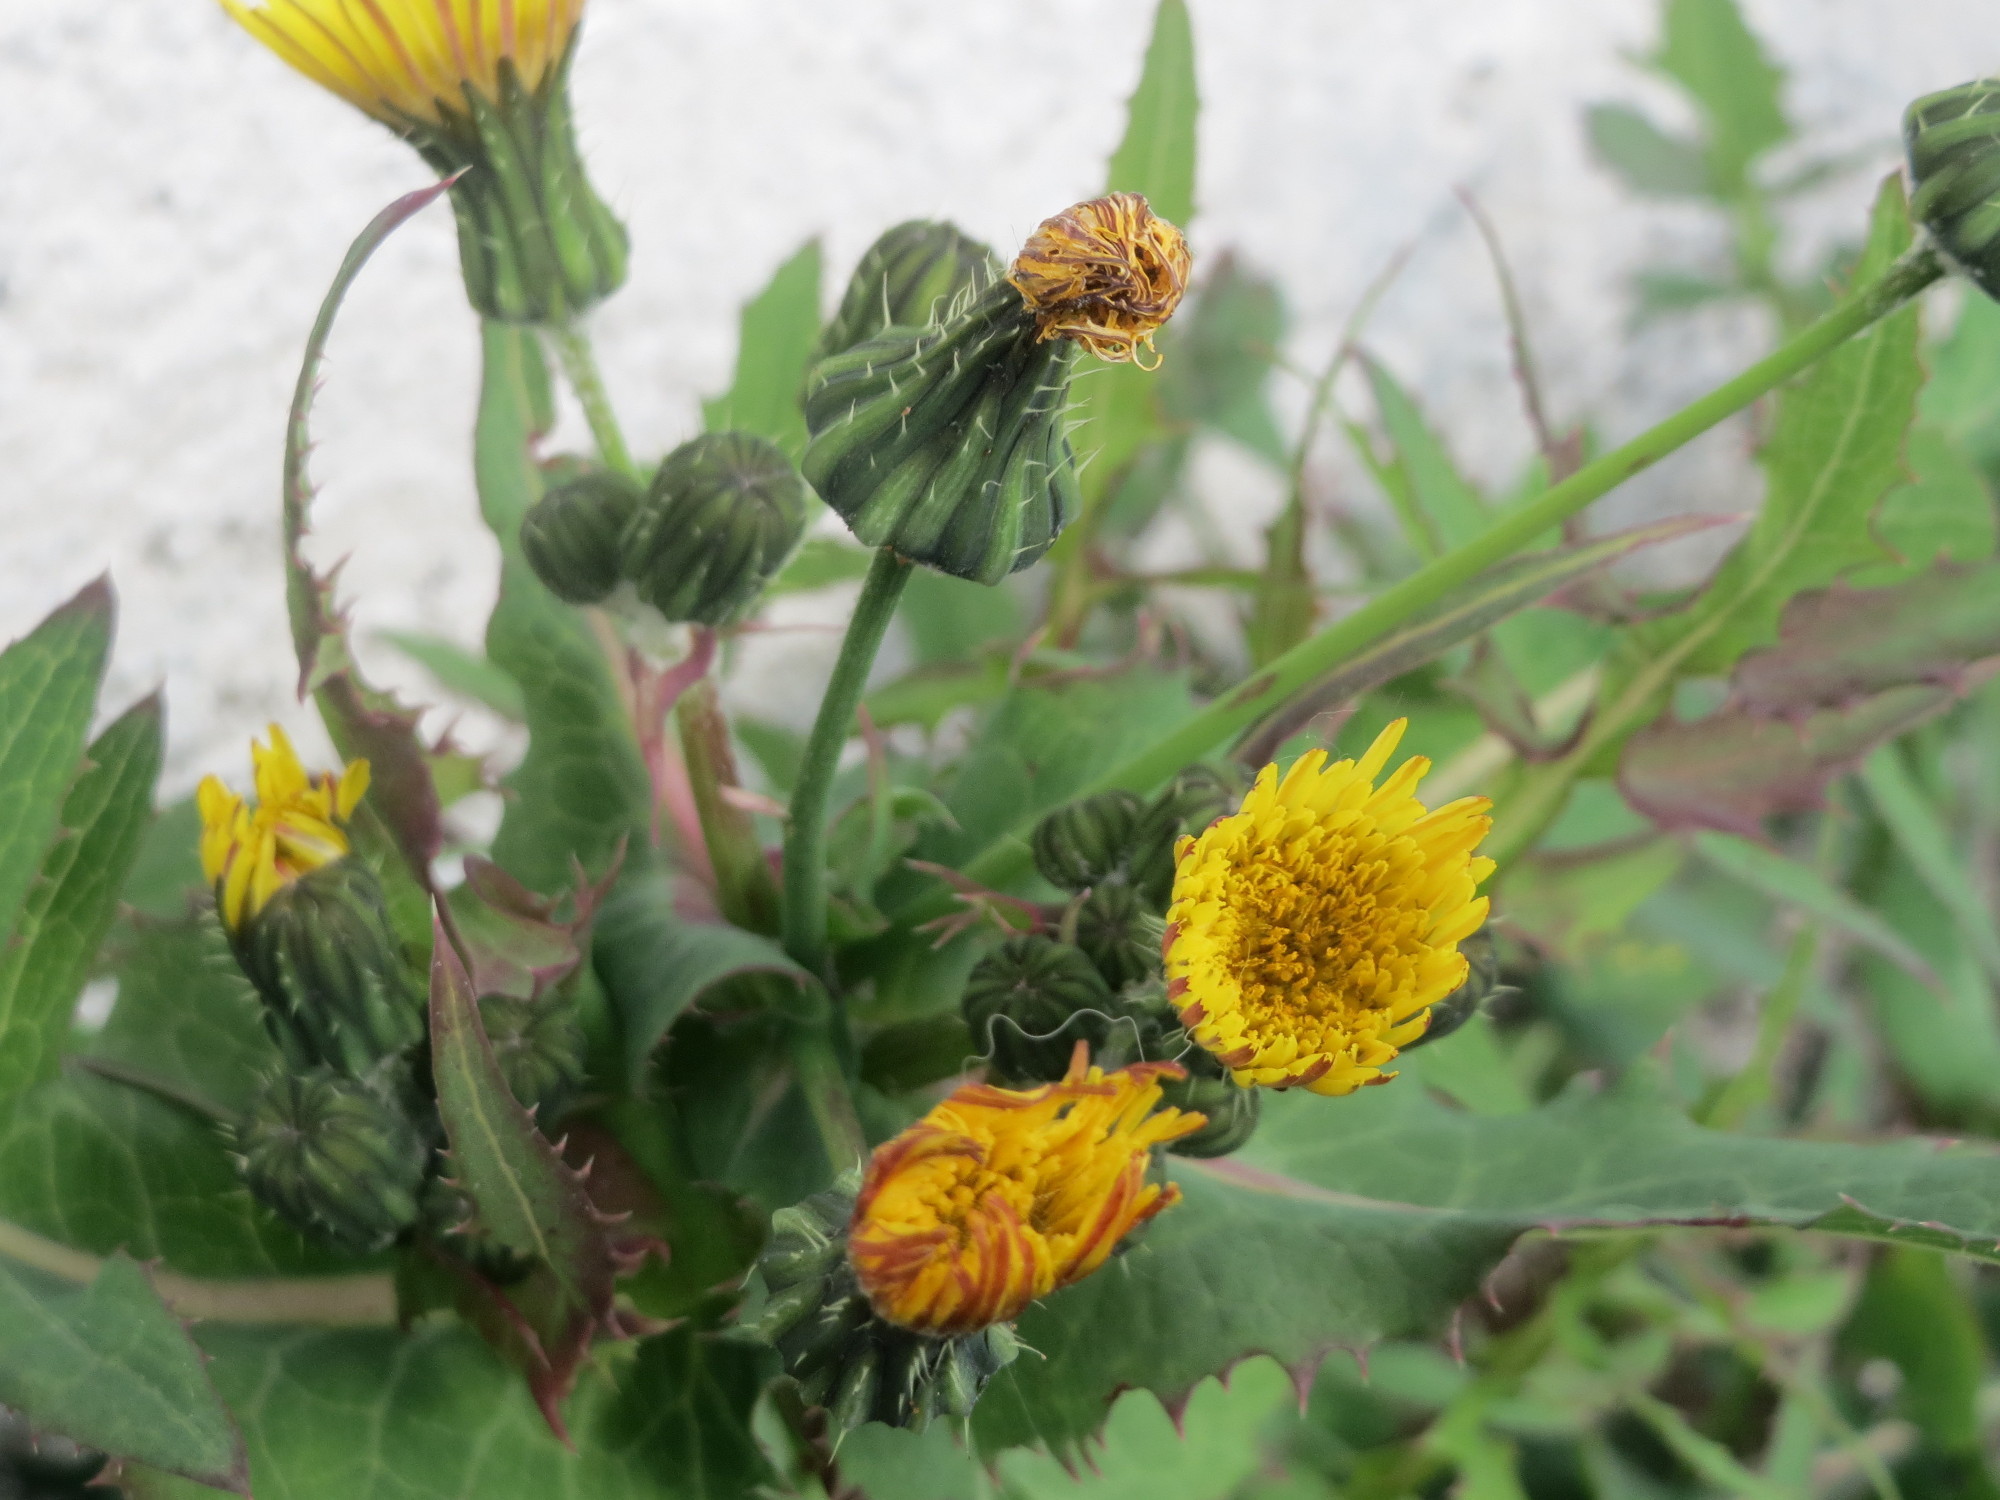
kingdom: Plantae
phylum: Tracheophyta
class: Magnoliopsida
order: Asterales
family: Asteraceae
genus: Sonchus
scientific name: Sonchus asper
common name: Prickly sow-thistle
